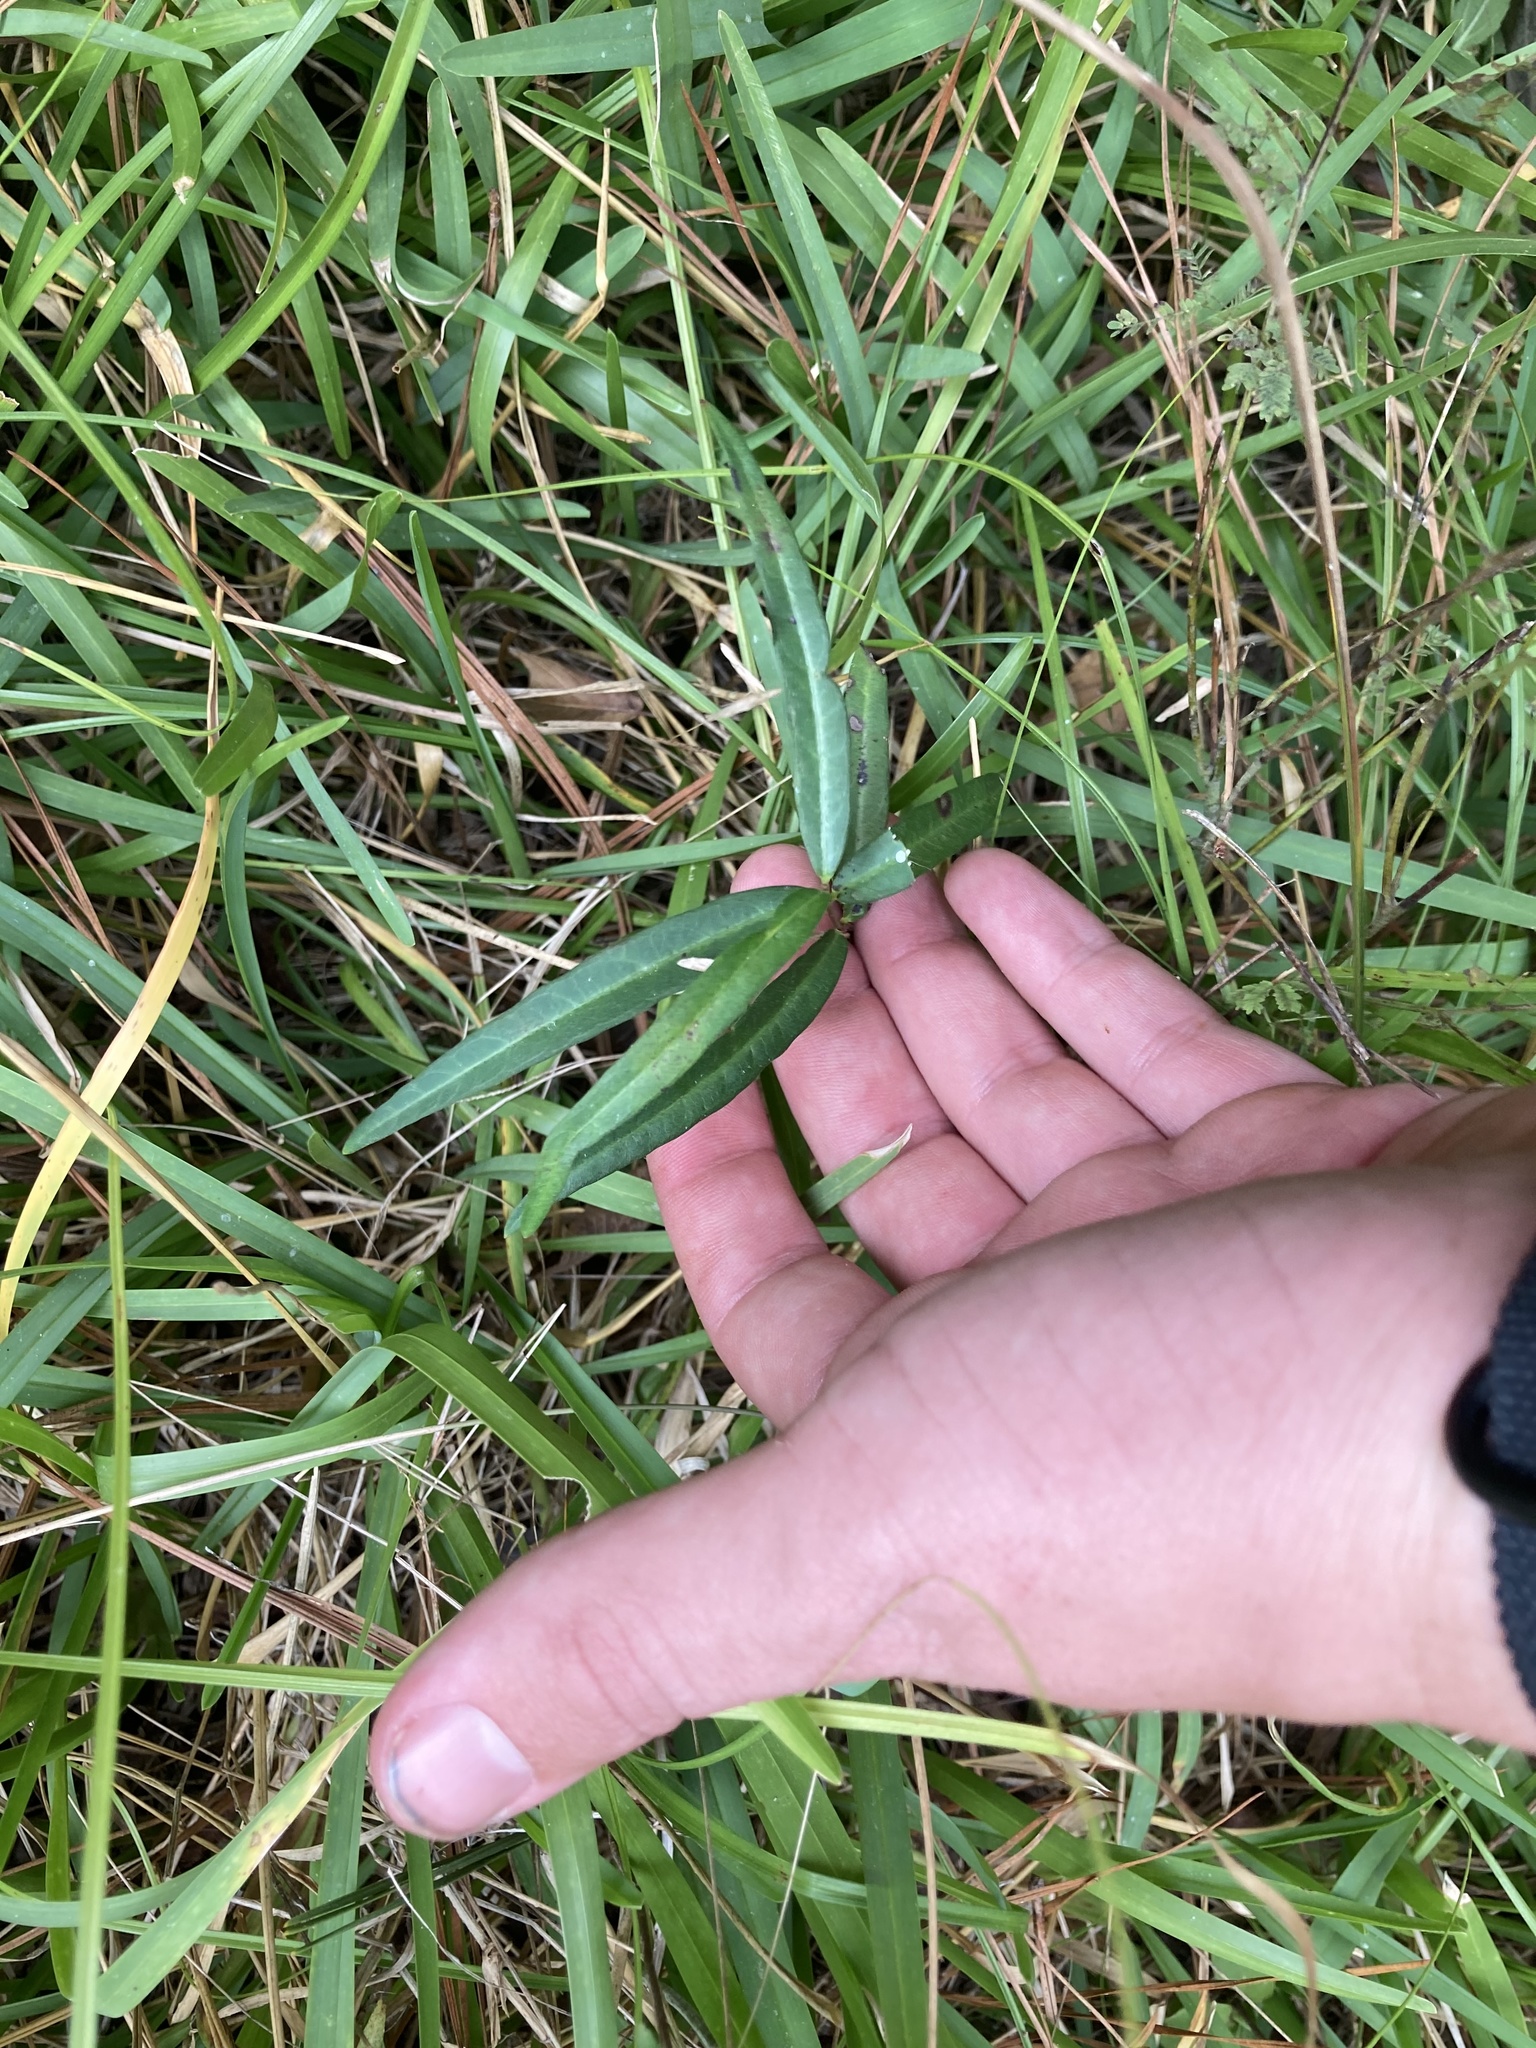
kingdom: Plantae
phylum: Tracheophyta
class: Magnoliopsida
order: Gentianales
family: Apocynaceae
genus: Thyrsanthella
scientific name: Thyrsanthella difformis
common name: Climbing dogbane
